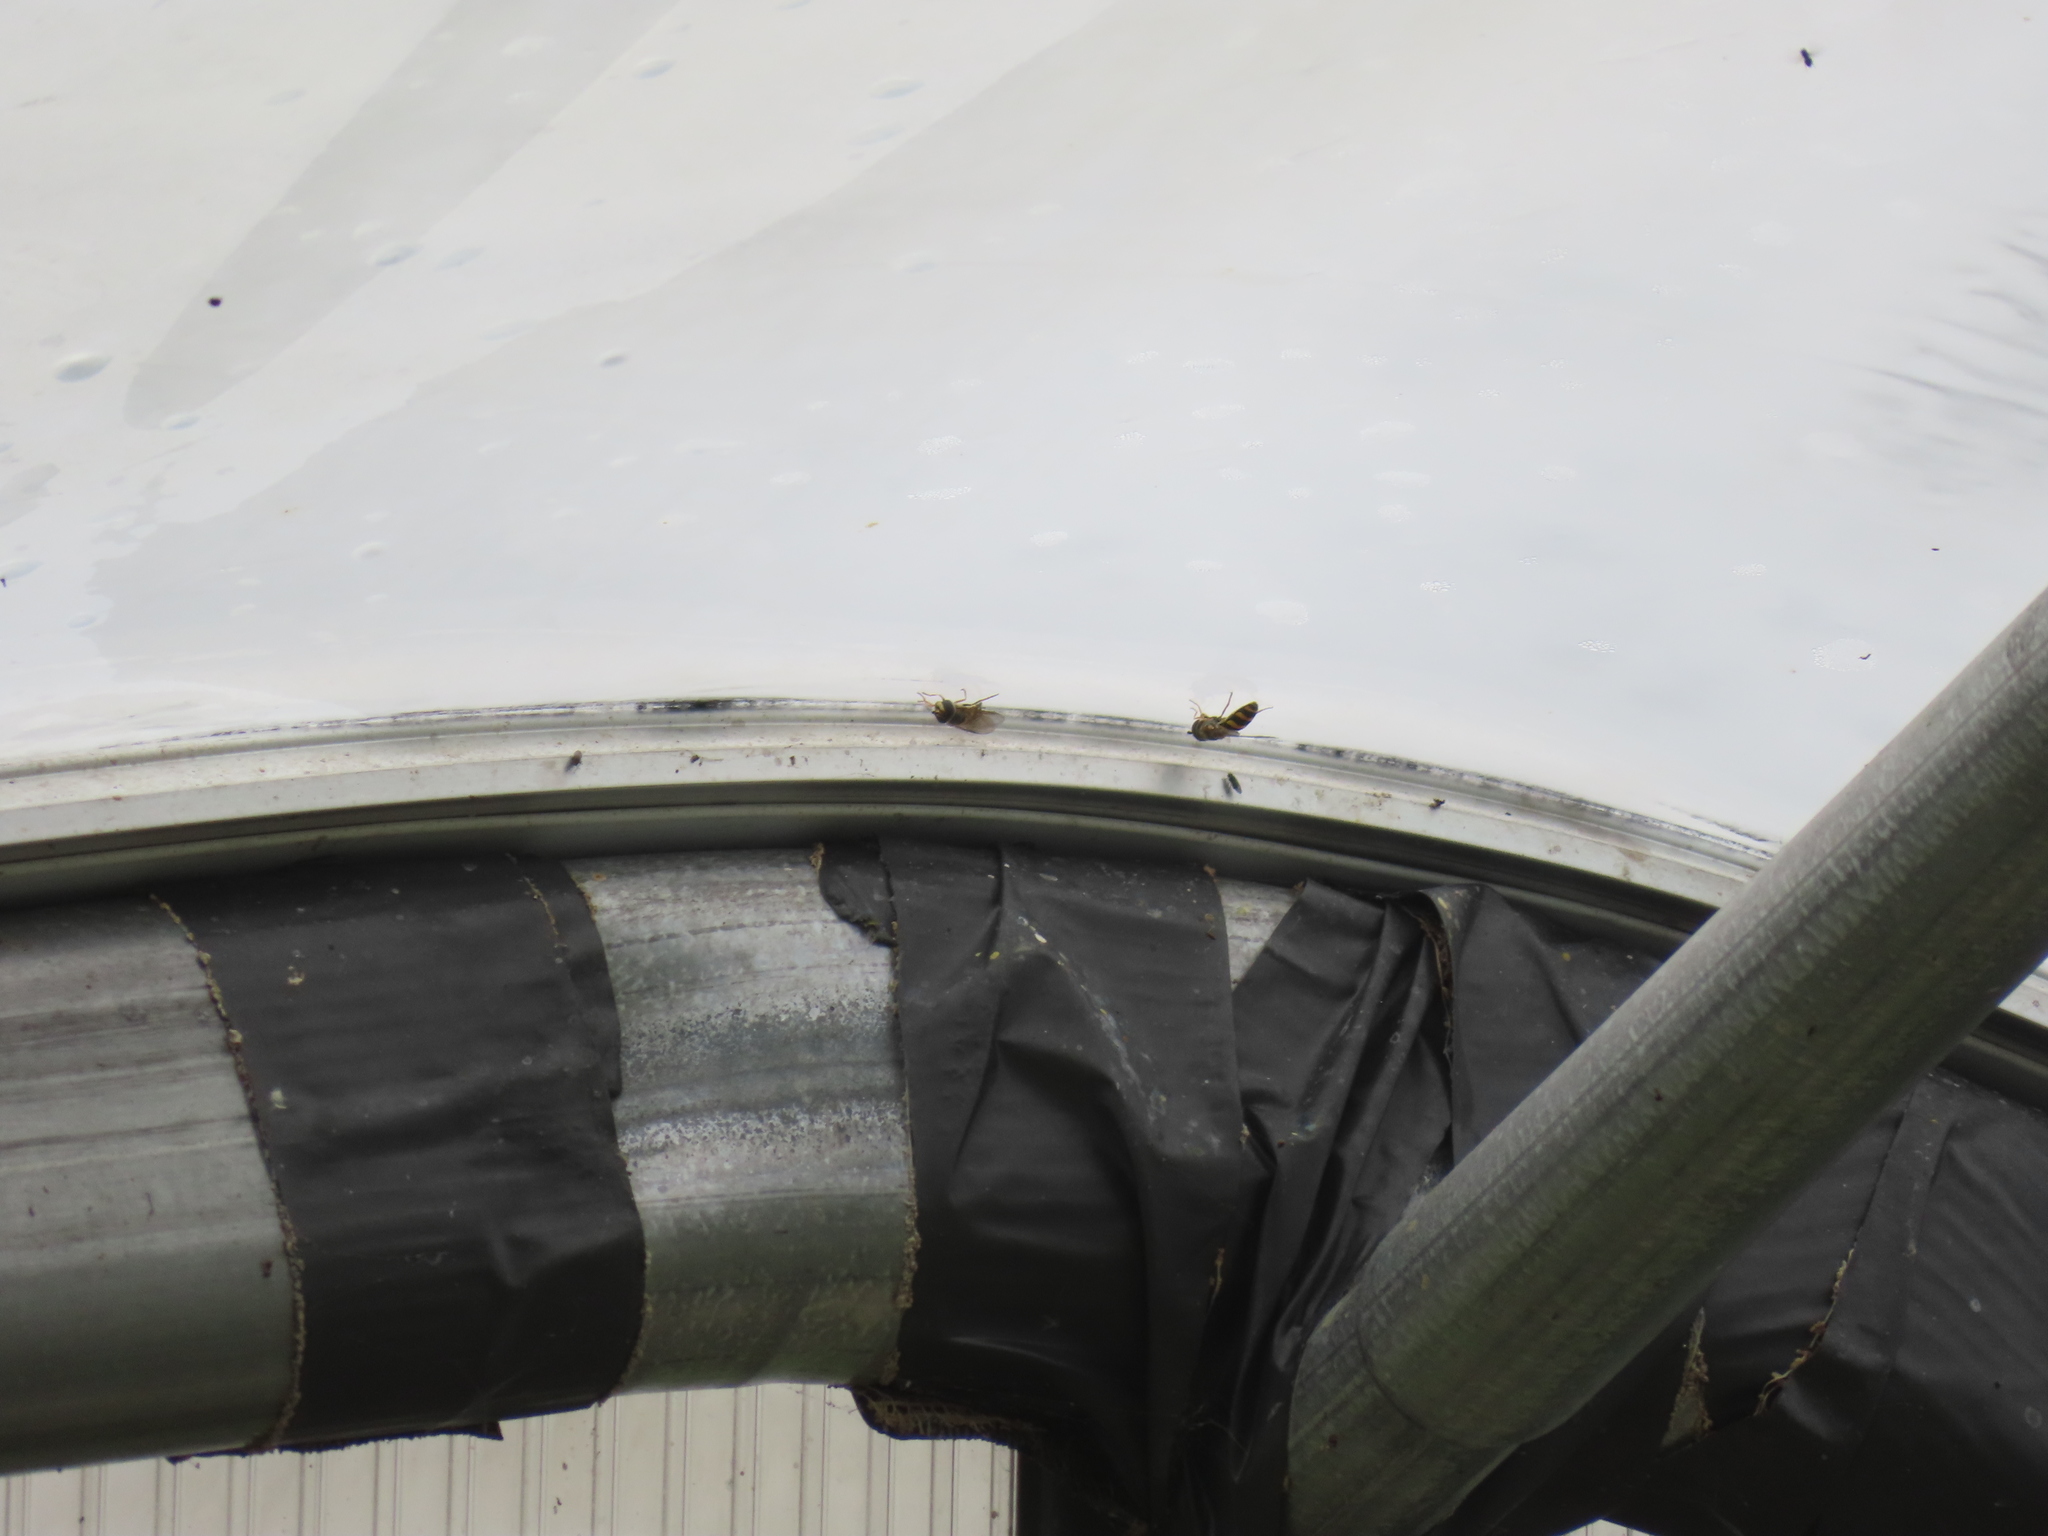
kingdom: Animalia
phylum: Arthropoda
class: Insecta
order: Diptera
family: Syrphidae
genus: Eupeodes
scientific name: Eupeodes
